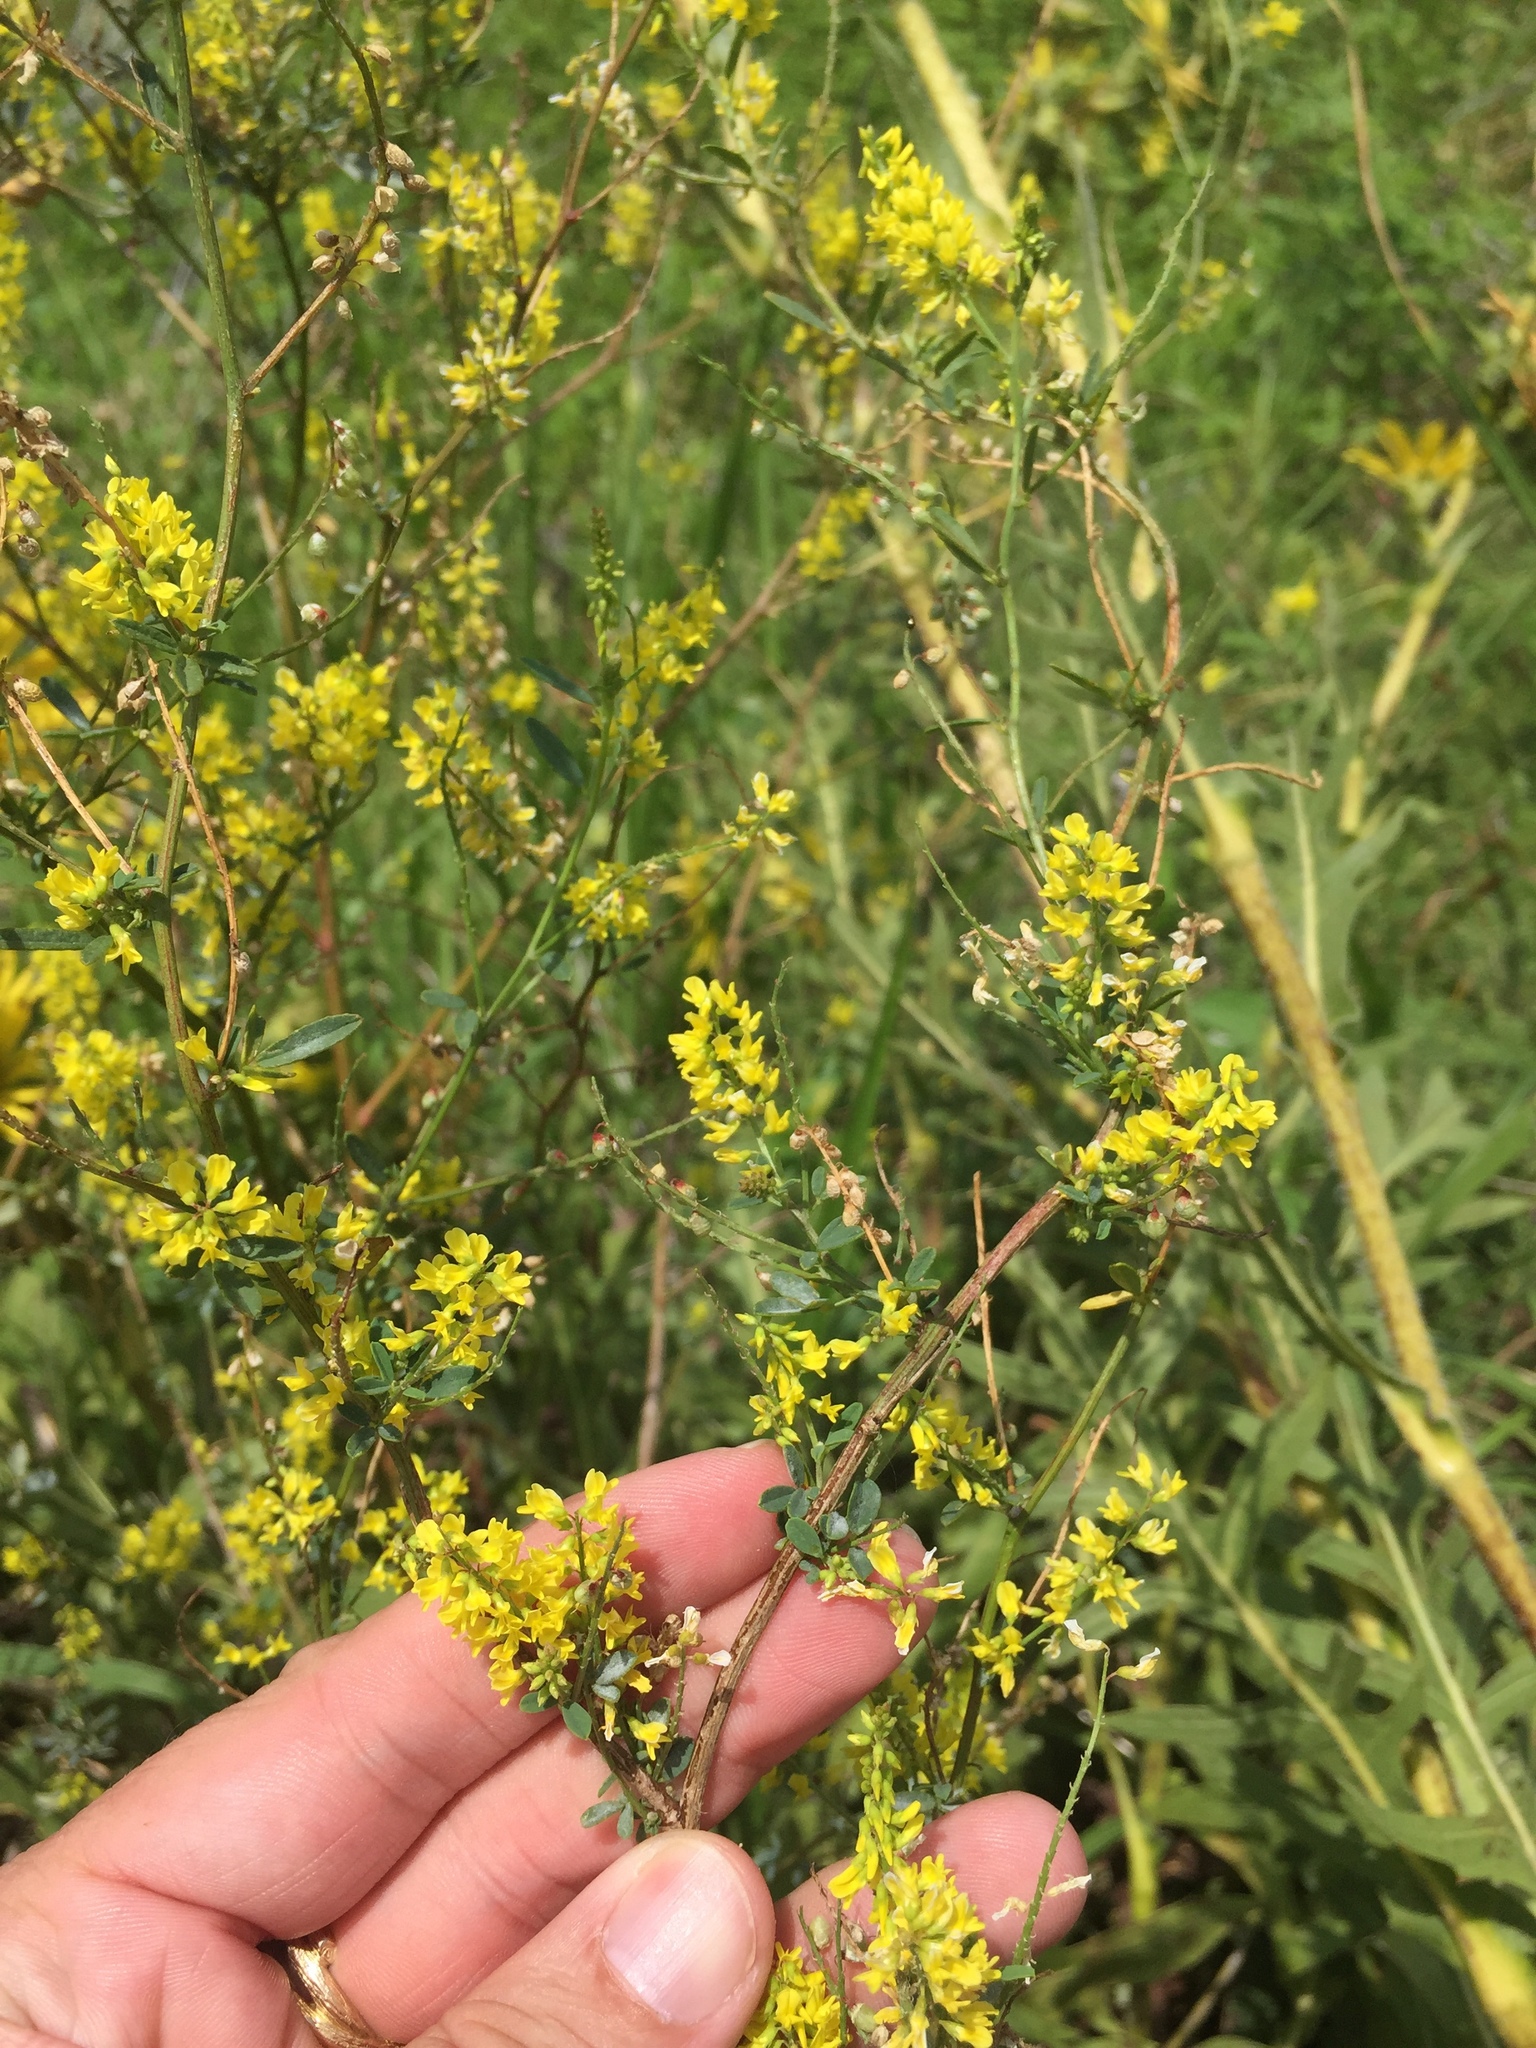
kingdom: Plantae
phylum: Tracheophyta
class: Magnoliopsida
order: Fabales
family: Fabaceae
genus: Melilotus
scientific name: Melilotus officinalis
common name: Sweetclover
